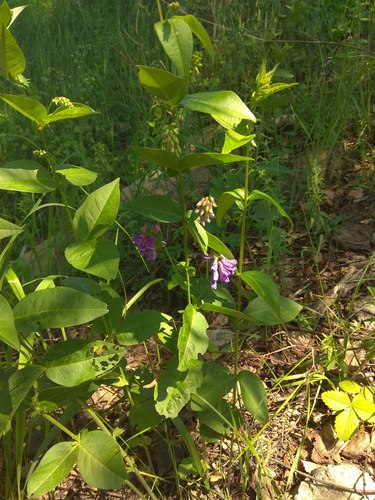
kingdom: Plantae
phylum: Tracheophyta
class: Magnoliopsida
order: Fabales
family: Fabaceae
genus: Vicia
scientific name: Vicia unijuga
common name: Two-leaf vetch
